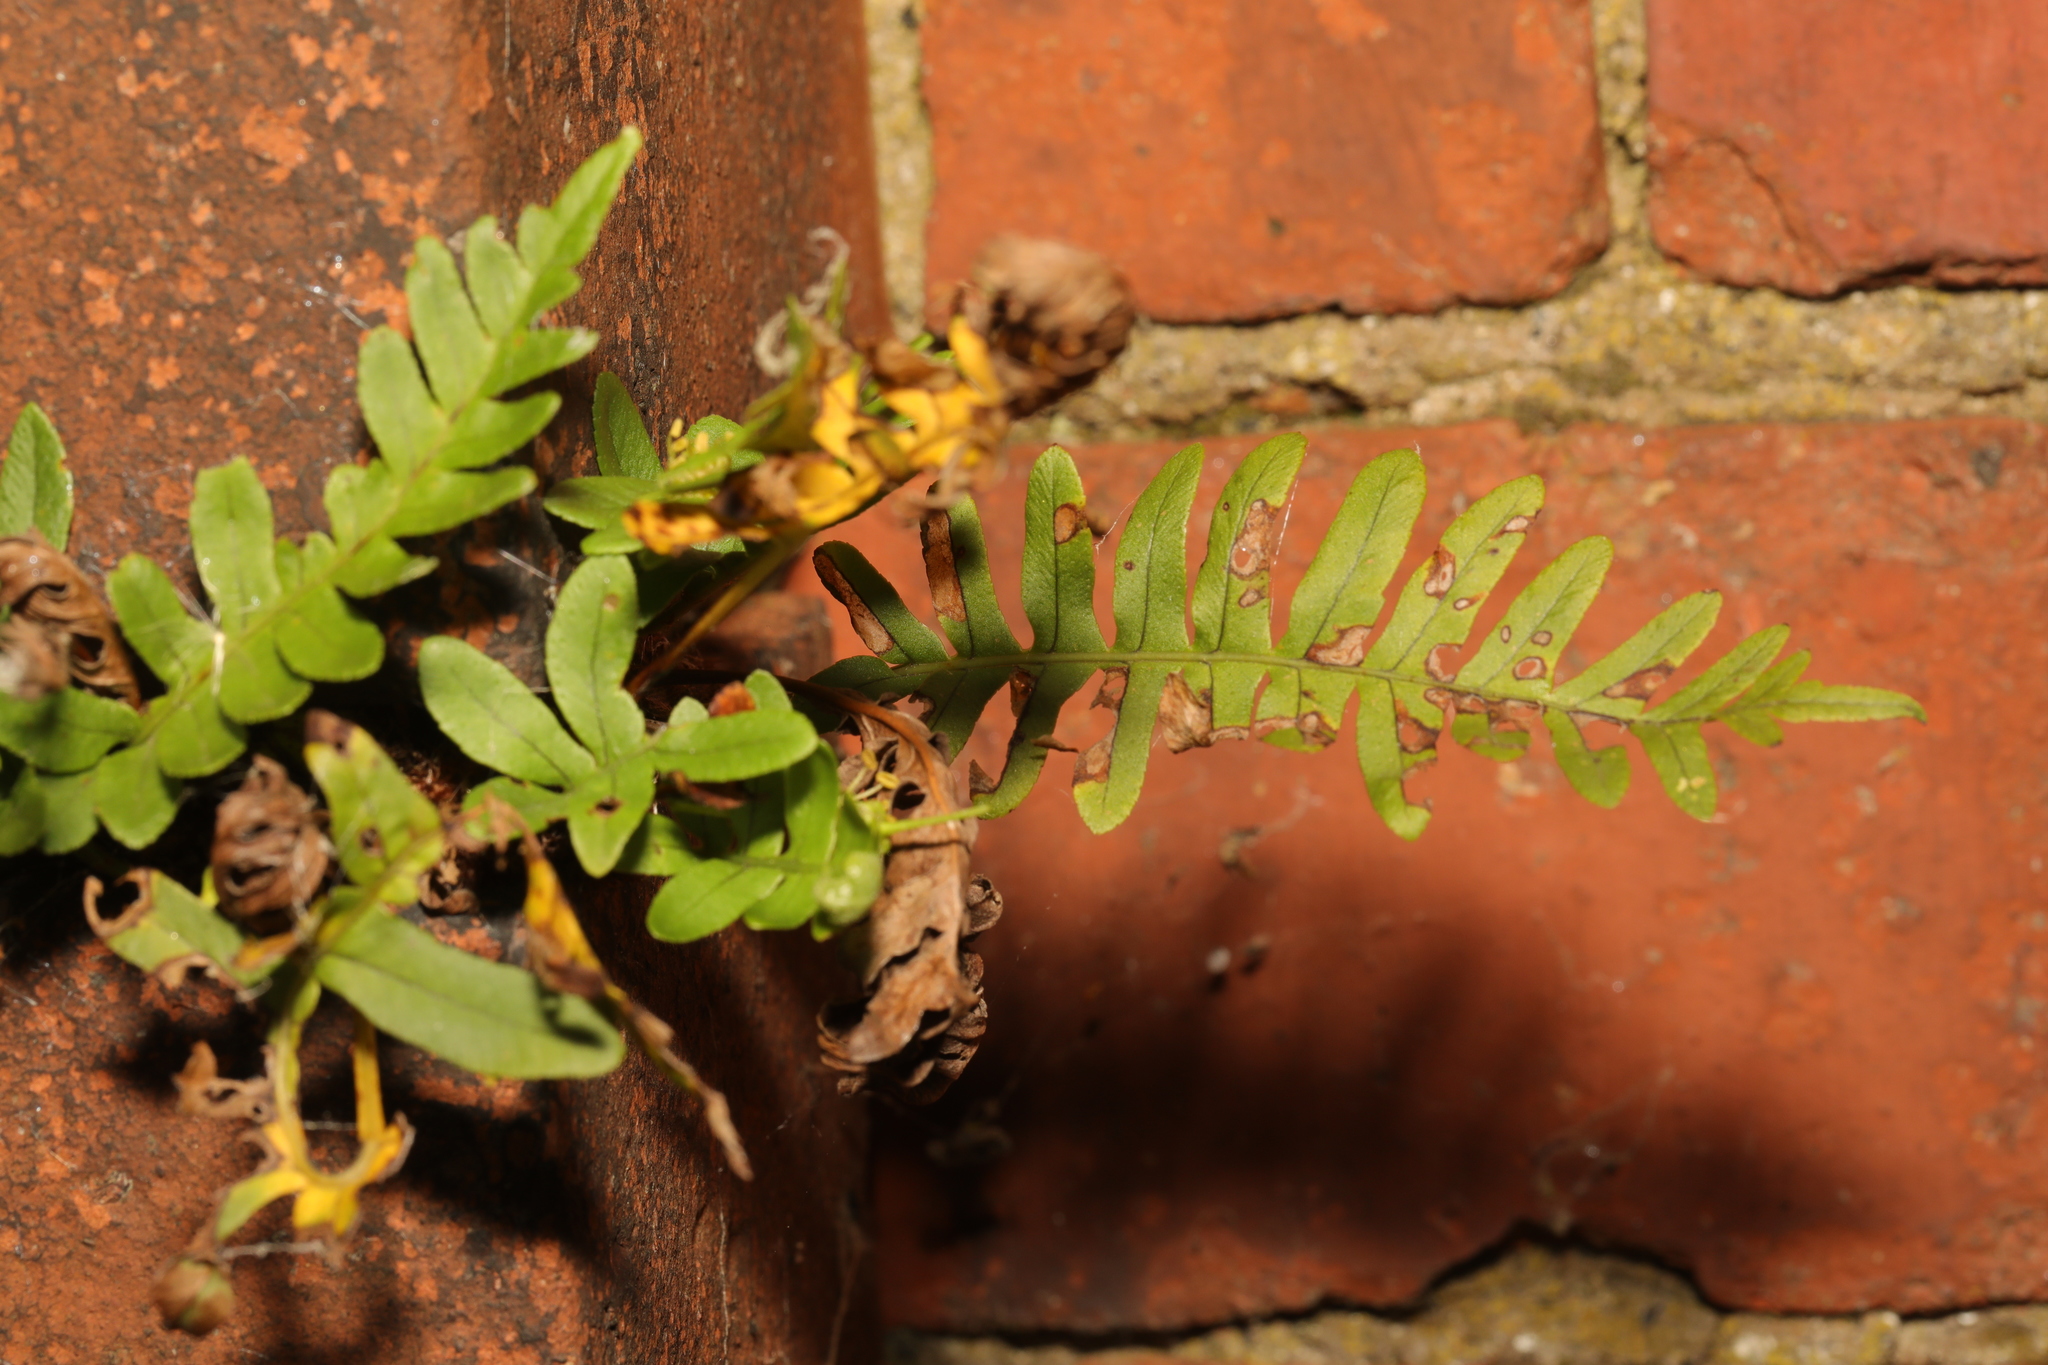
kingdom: Plantae
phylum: Tracheophyta
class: Polypodiopsida
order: Polypodiales
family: Polypodiaceae
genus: Polypodium
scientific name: Polypodium vulgare
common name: Common polypody
